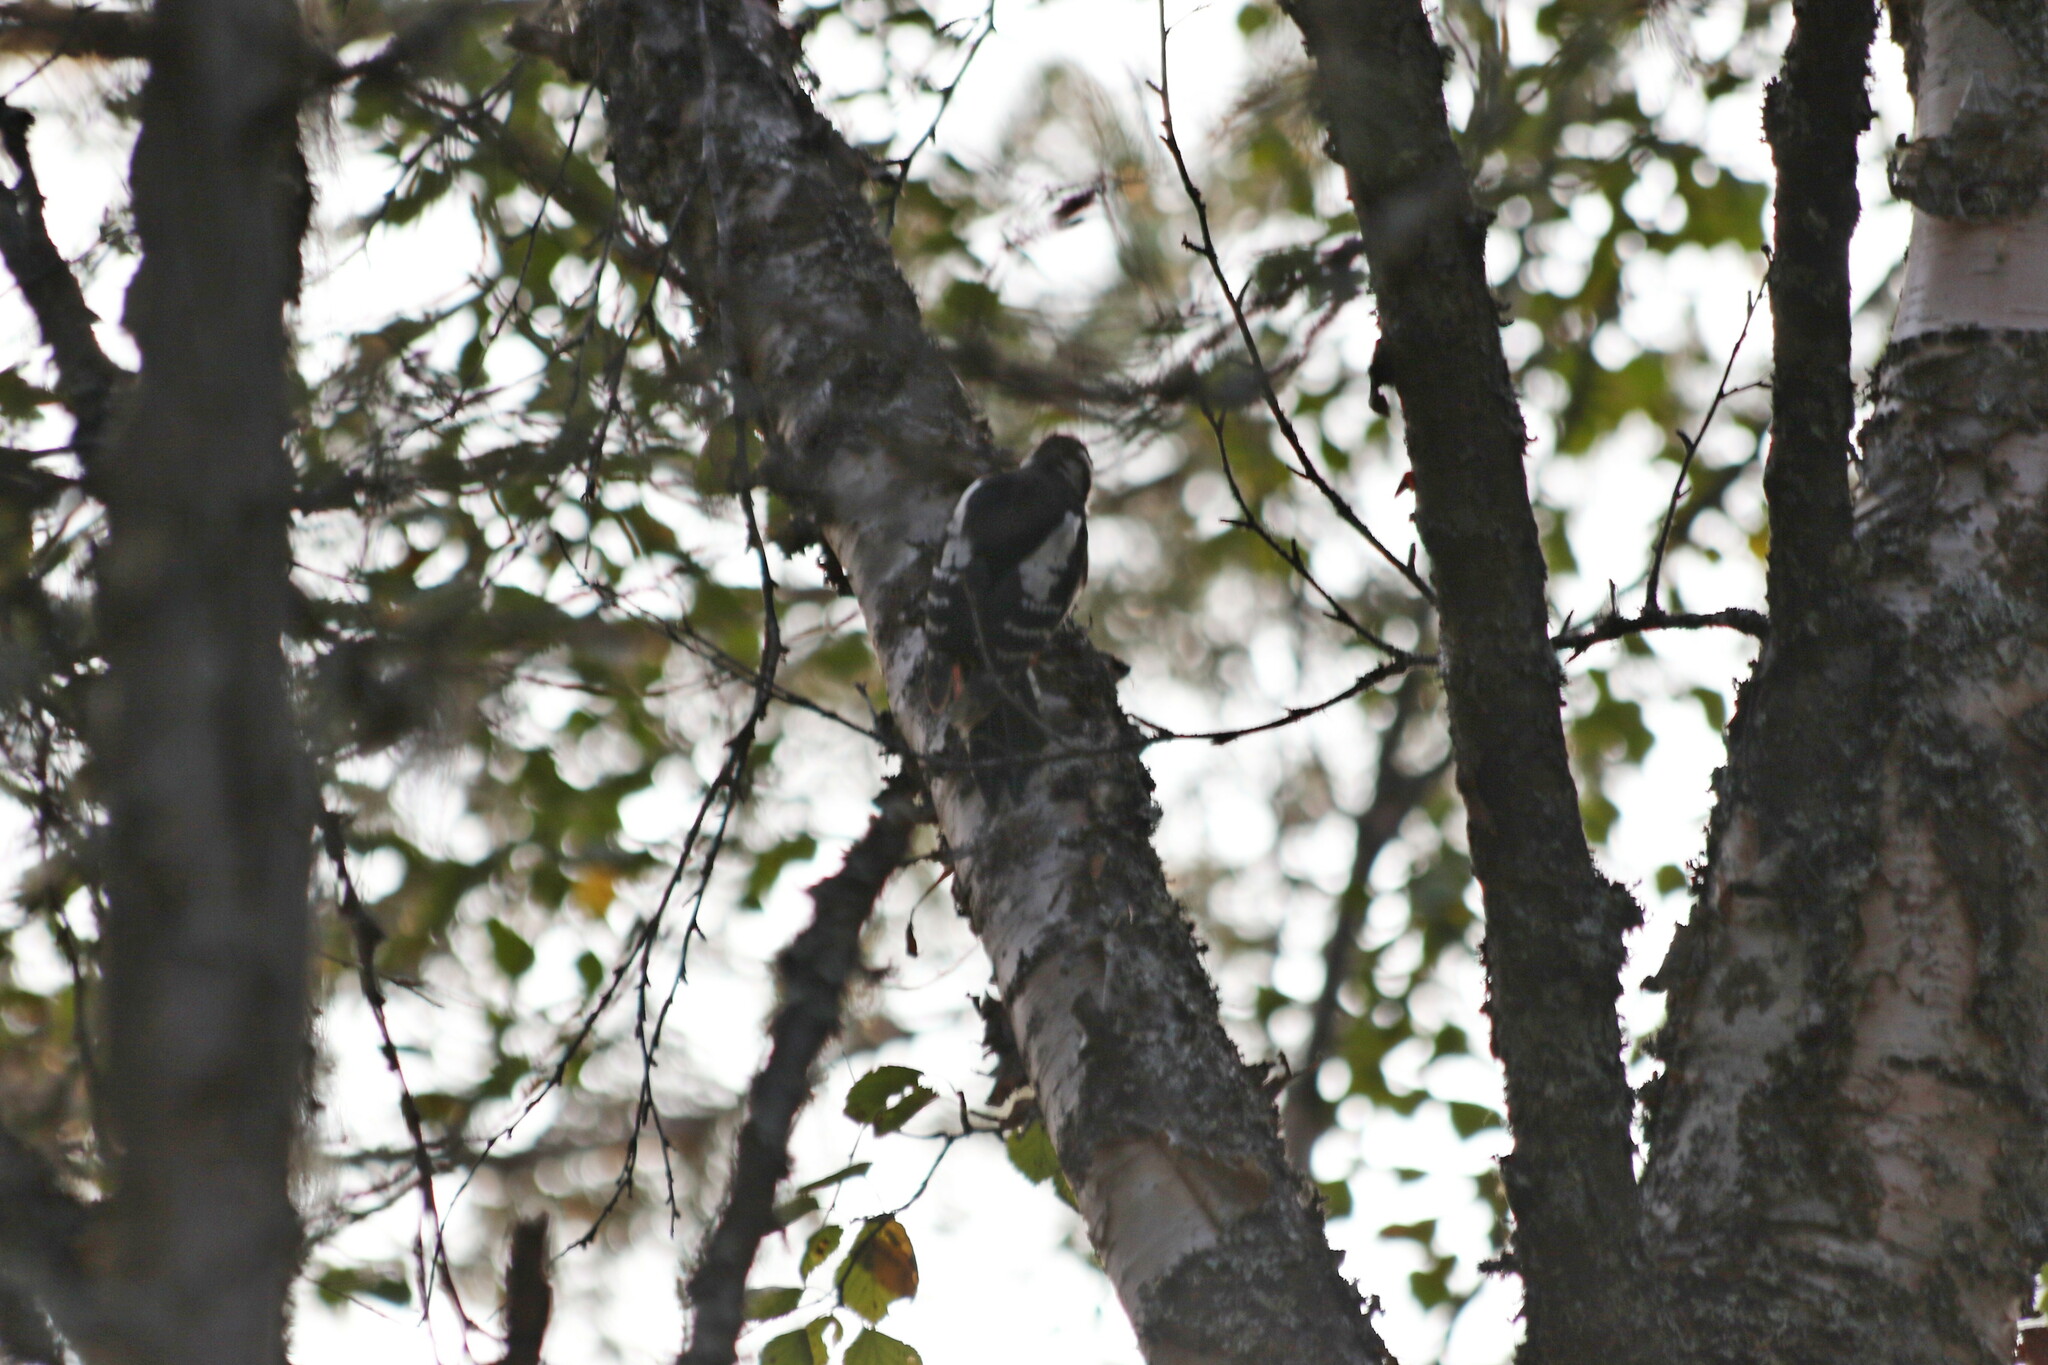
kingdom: Animalia
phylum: Chordata
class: Aves
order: Piciformes
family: Picidae
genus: Dendrocopos
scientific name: Dendrocopos major
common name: Great spotted woodpecker
